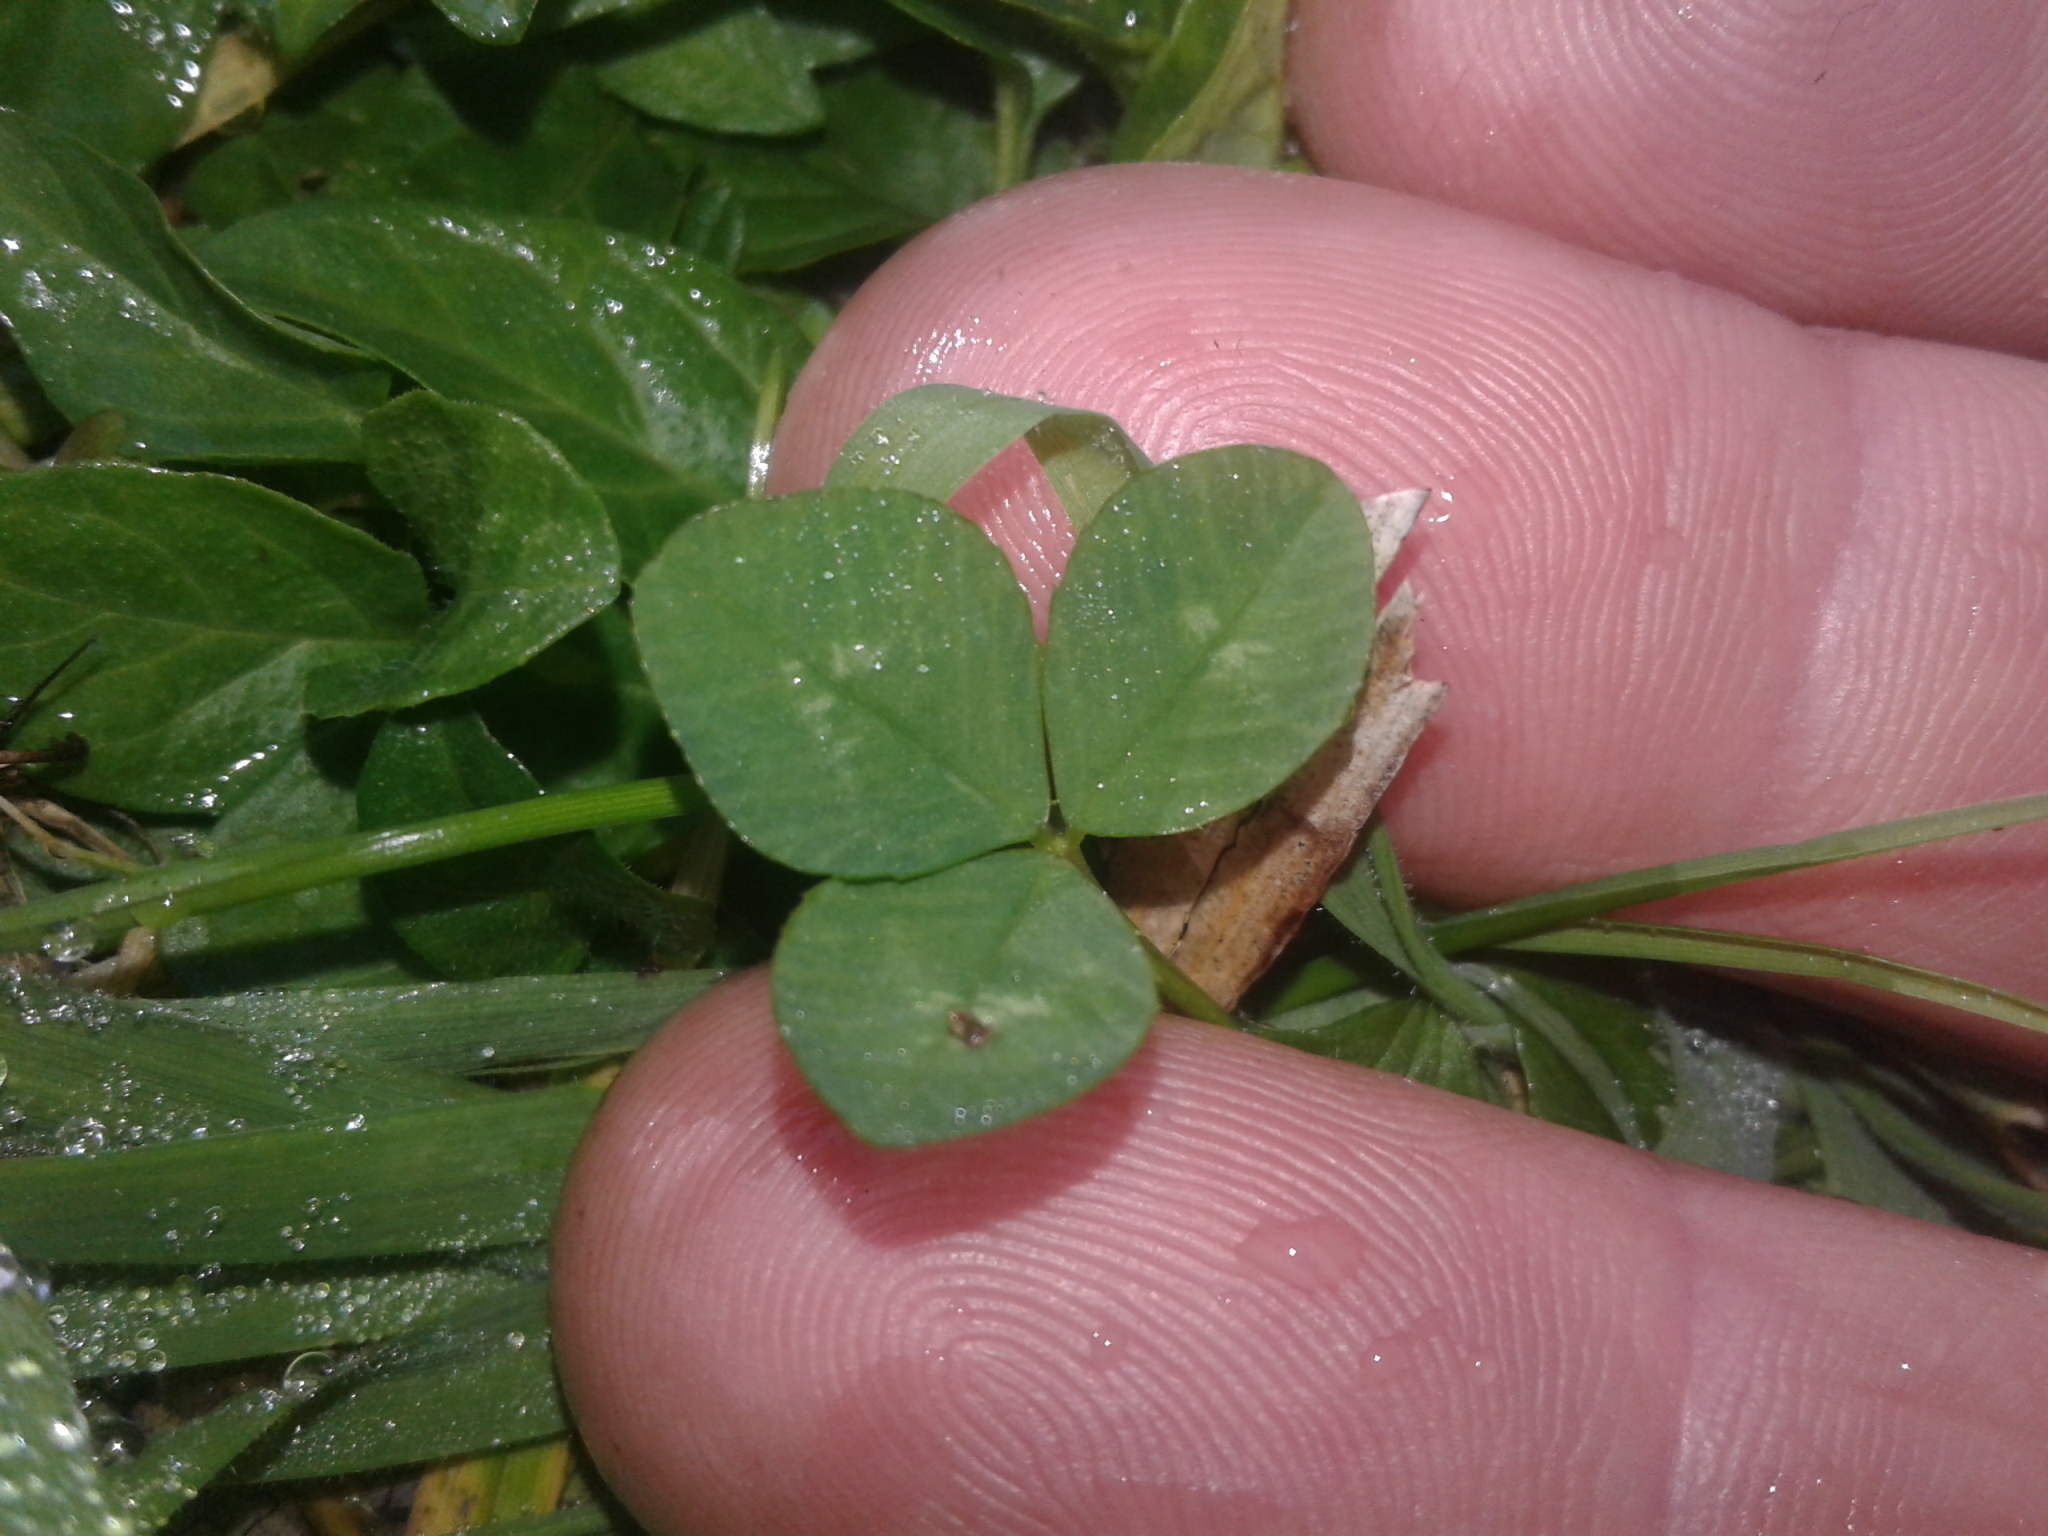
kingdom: Plantae
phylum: Tracheophyta
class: Magnoliopsida
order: Fabales
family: Fabaceae
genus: Trifolium
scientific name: Trifolium repens
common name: White clover
